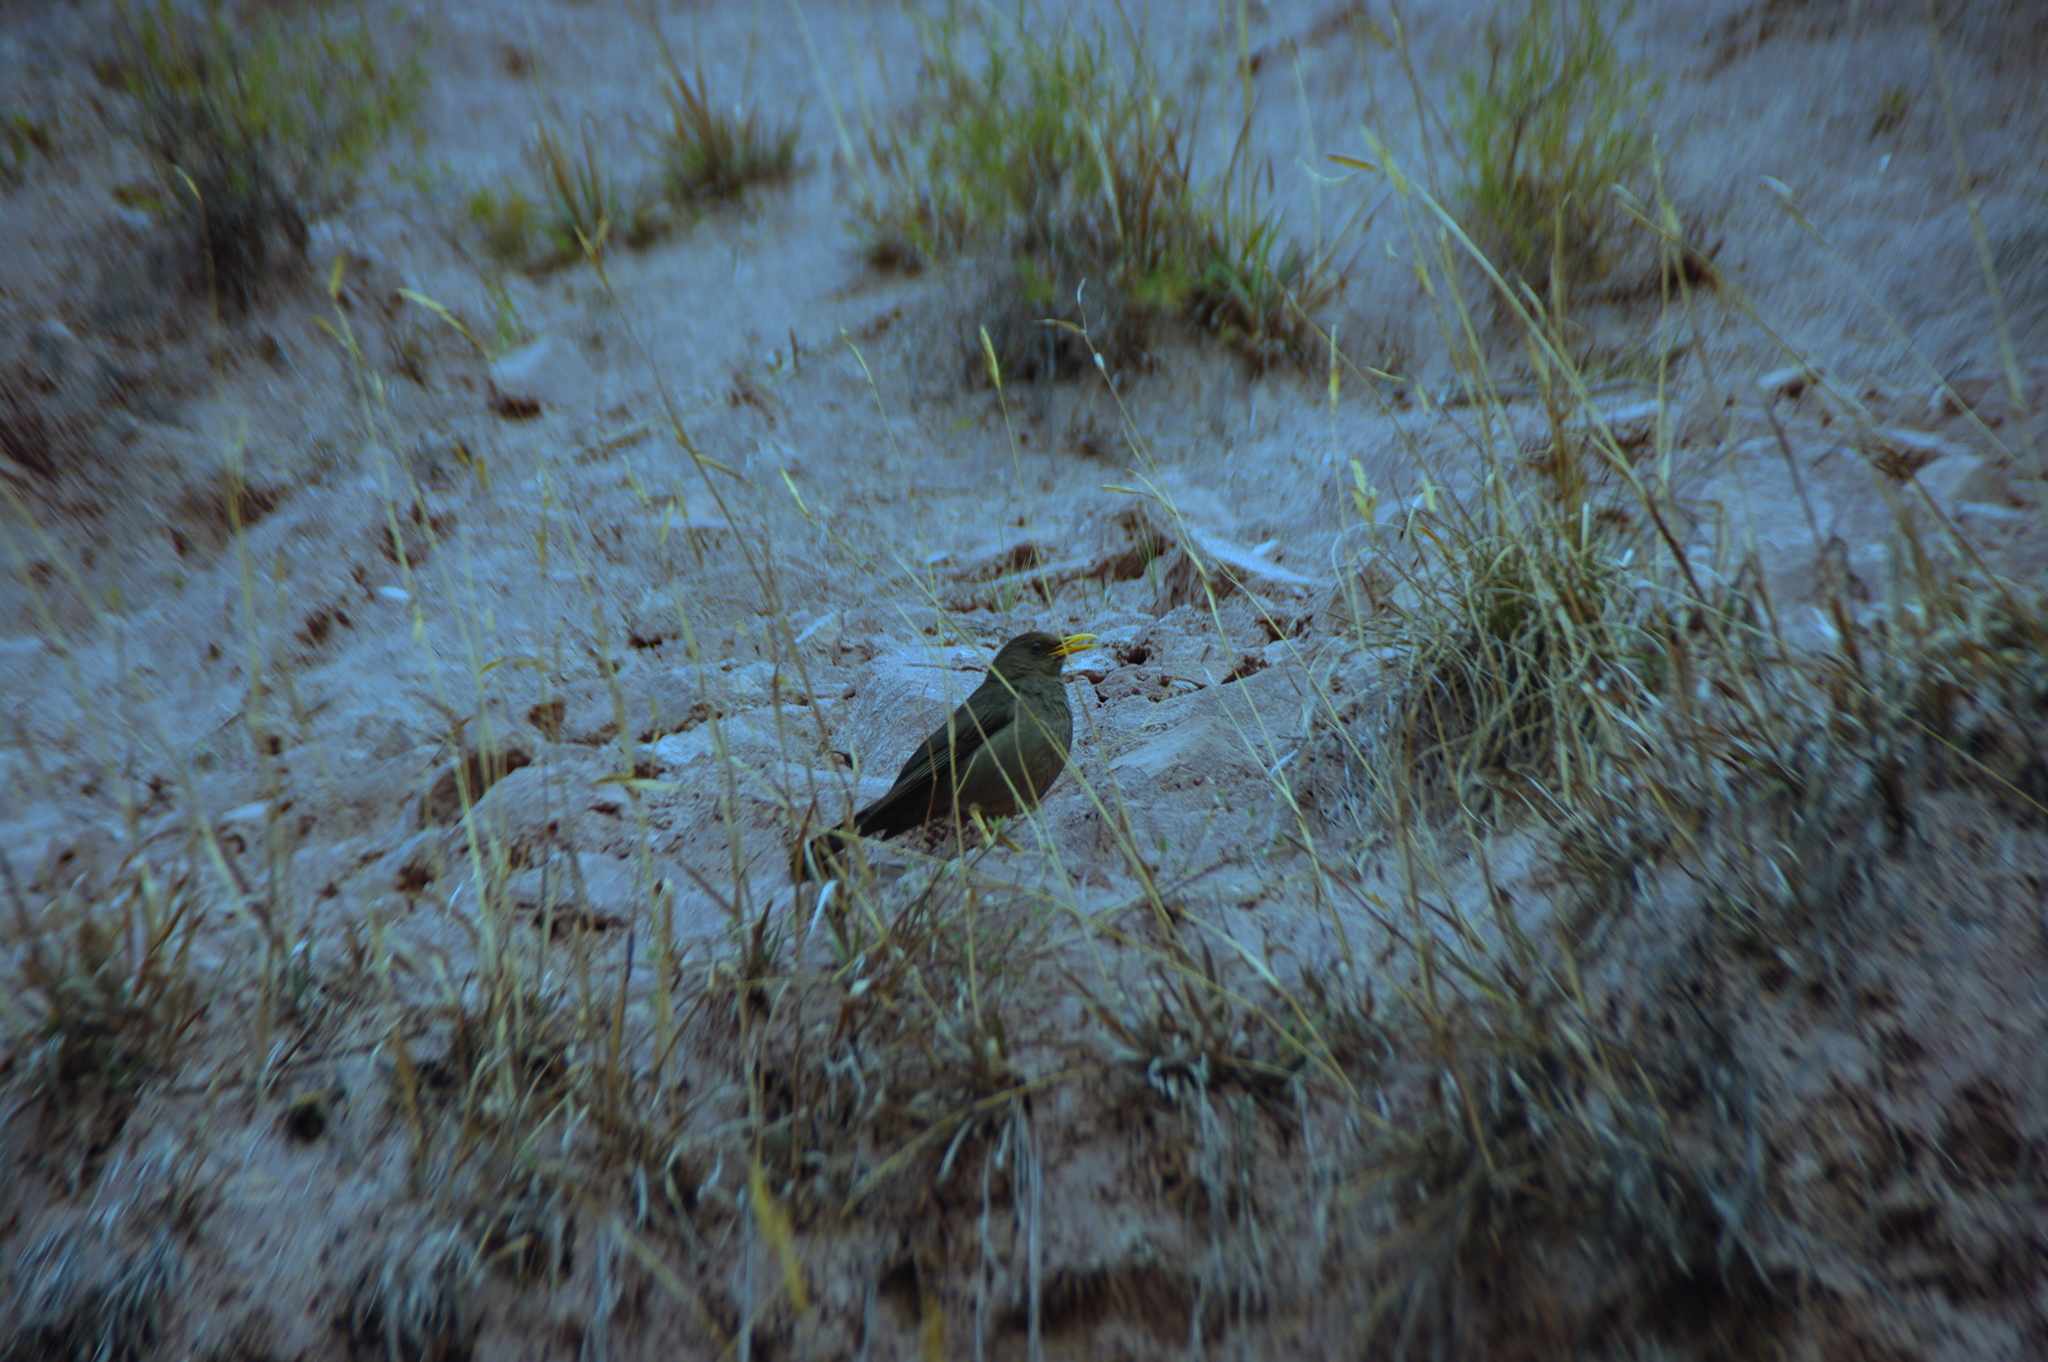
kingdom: Animalia
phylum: Chordata
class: Aves
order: Passeriformes
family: Turdidae
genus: Turdus
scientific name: Turdus chiguanco
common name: Chiguanco thrush
